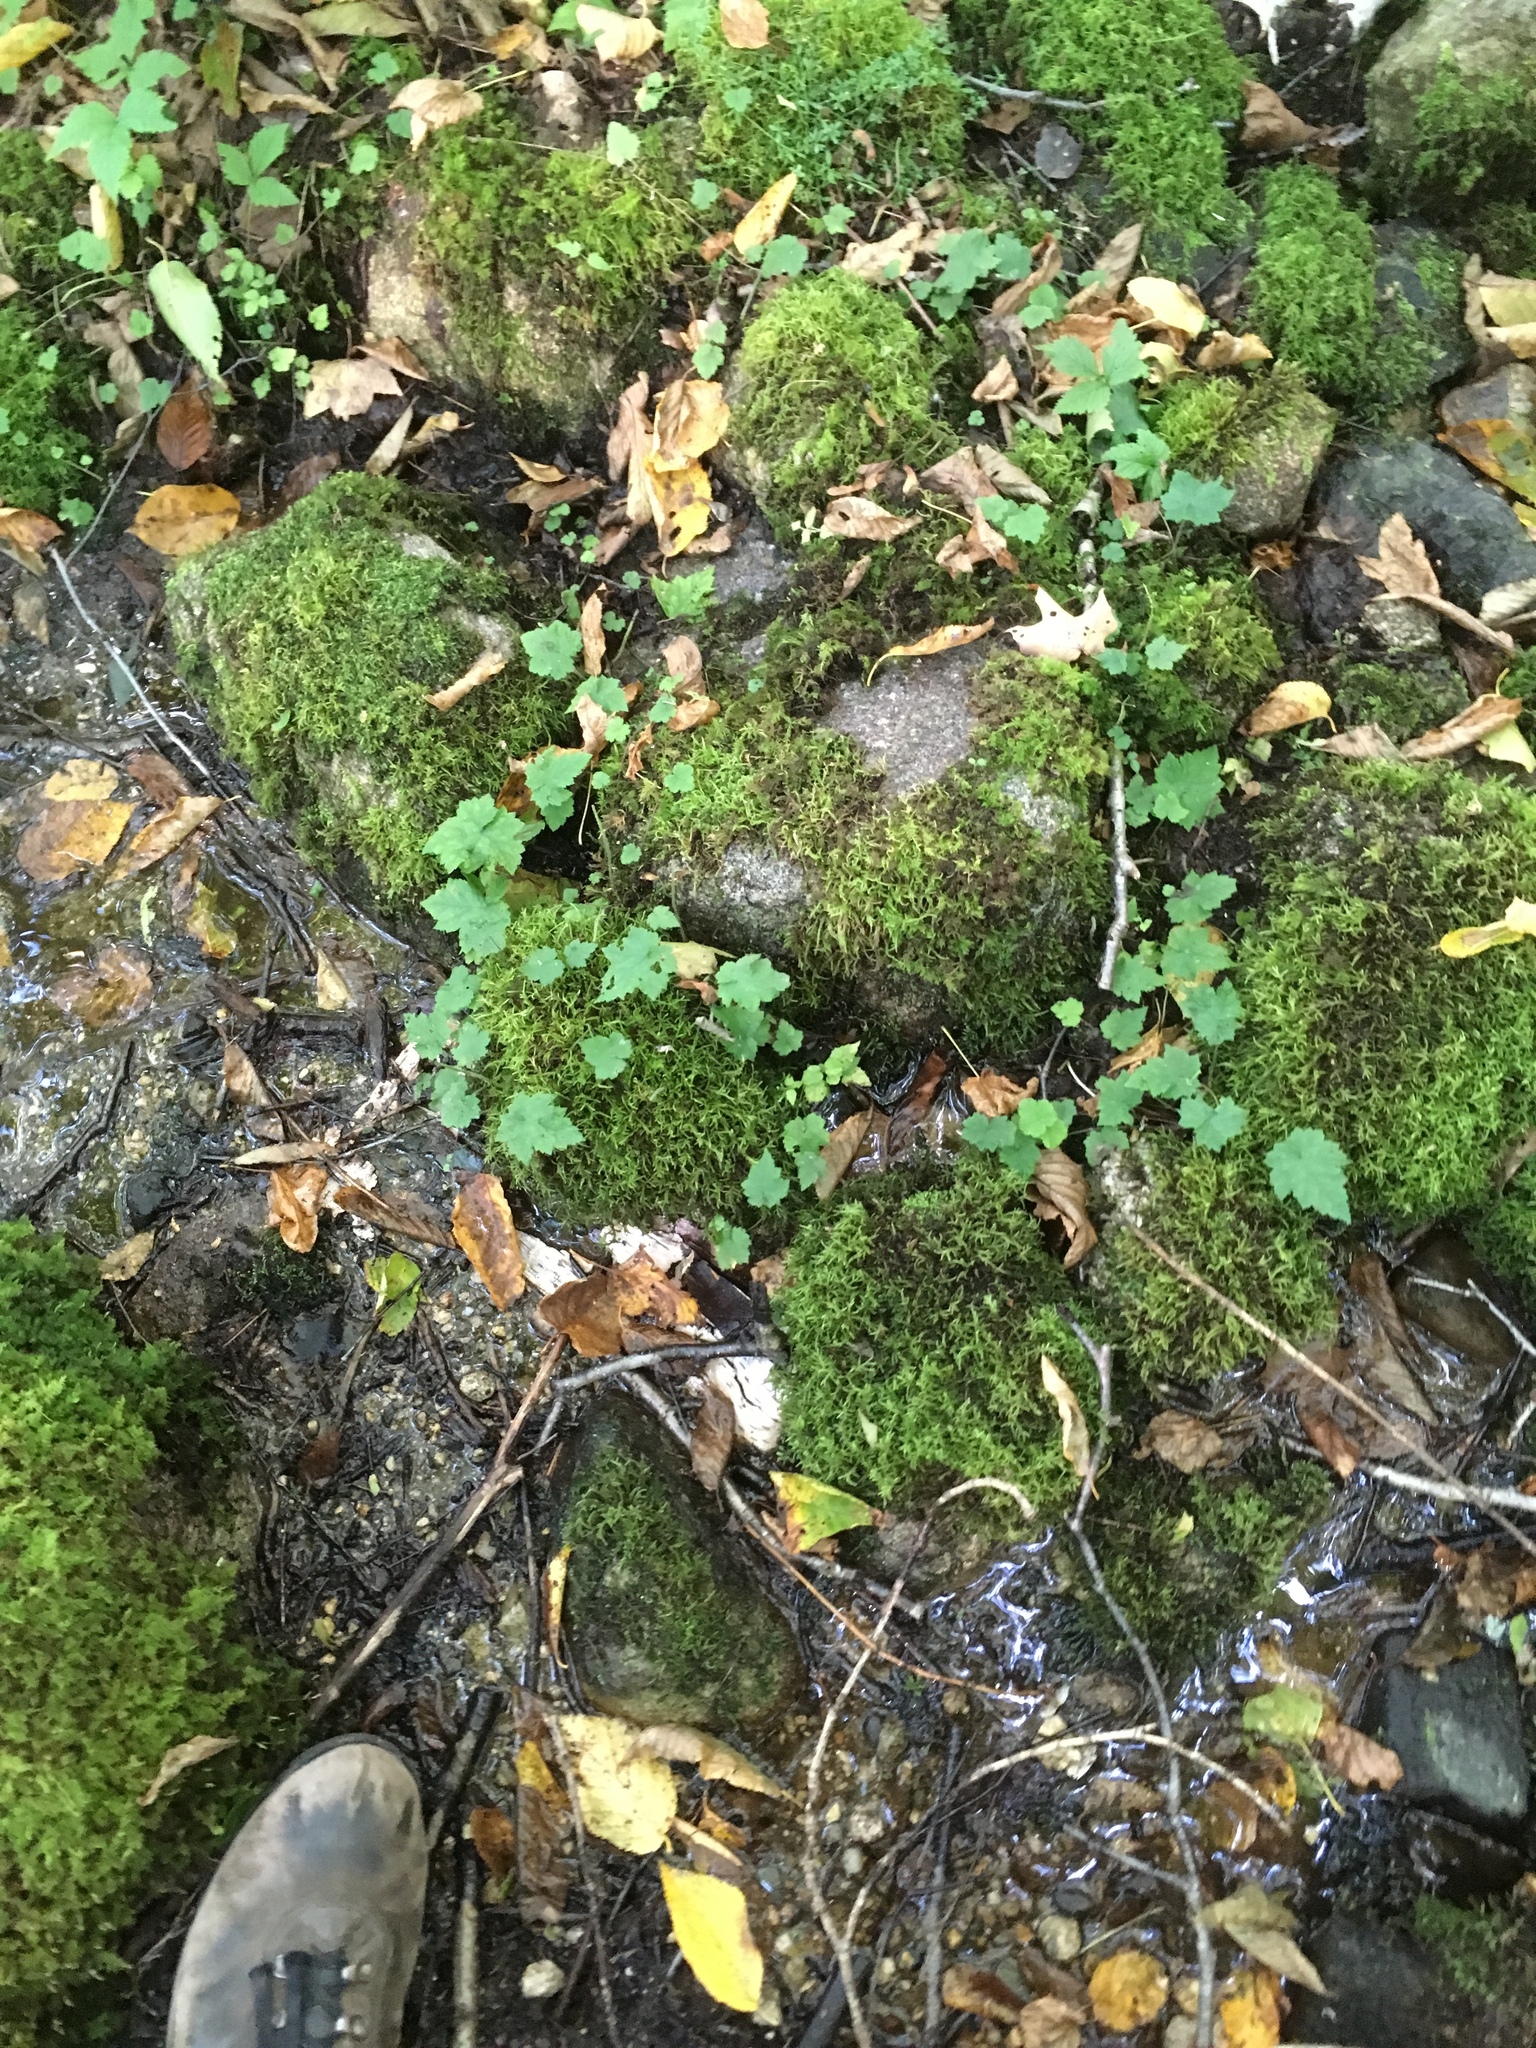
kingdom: Plantae
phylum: Tracheophyta
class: Magnoliopsida
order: Saxifragales
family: Saxifragaceae
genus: Tiarella
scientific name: Tiarella stolonifera
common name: Stoloniferous foamflower
